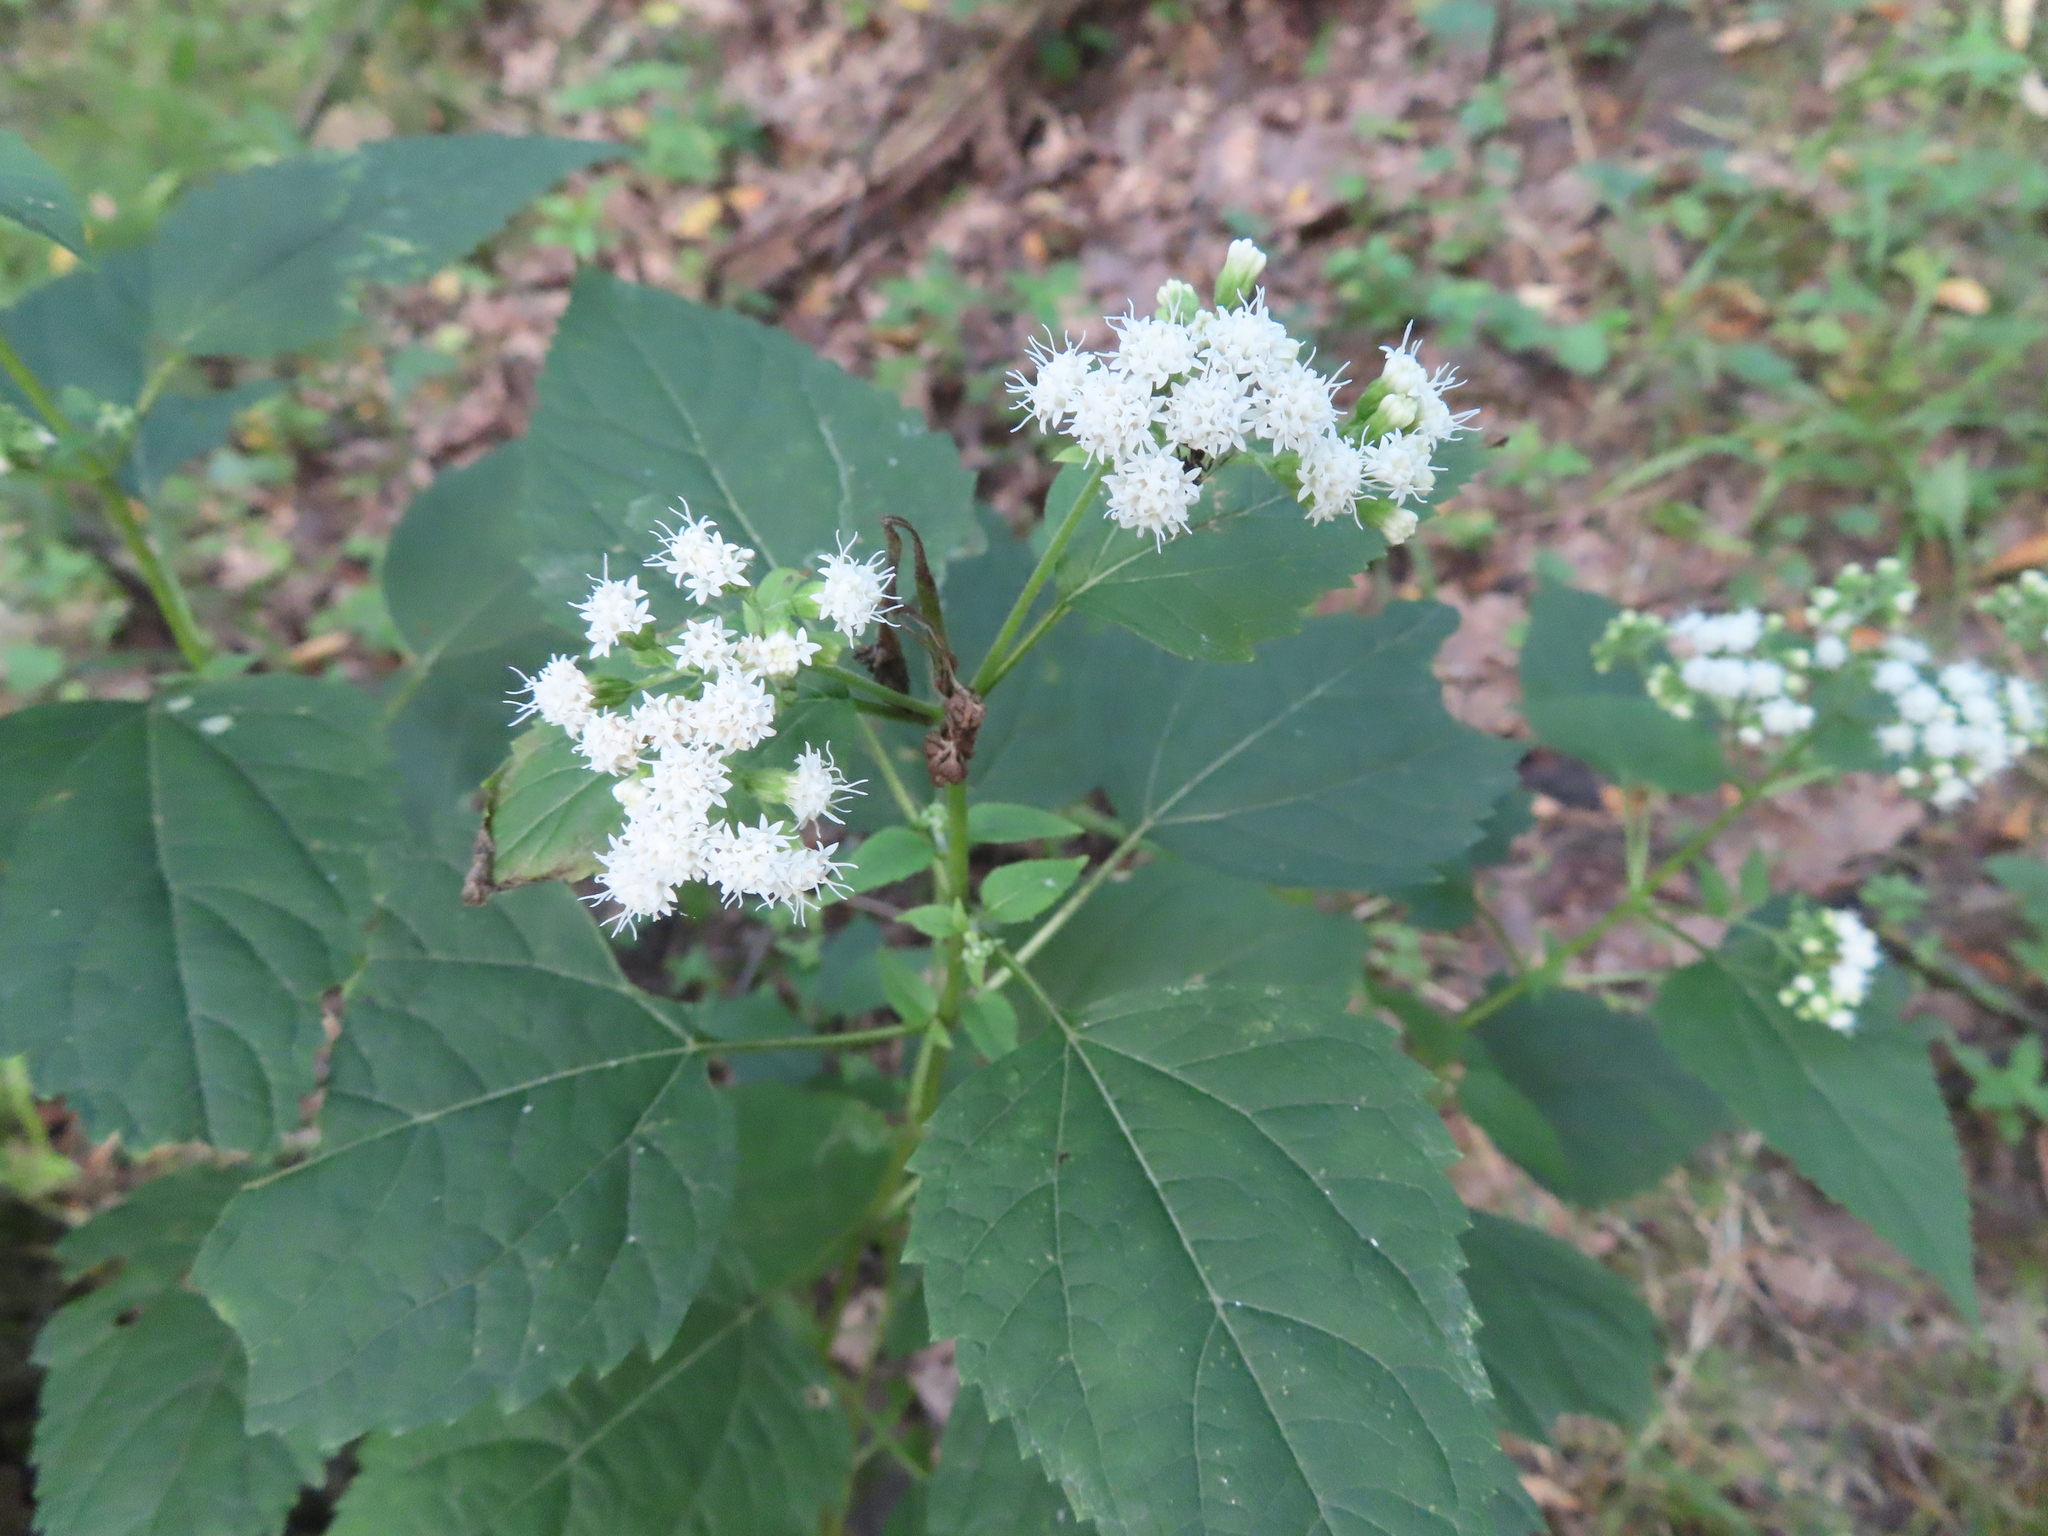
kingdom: Plantae
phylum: Tracheophyta
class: Magnoliopsida
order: Asterales
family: Asteraceae
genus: Ageratina
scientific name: Ageratina altissima
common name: White snakeroot
